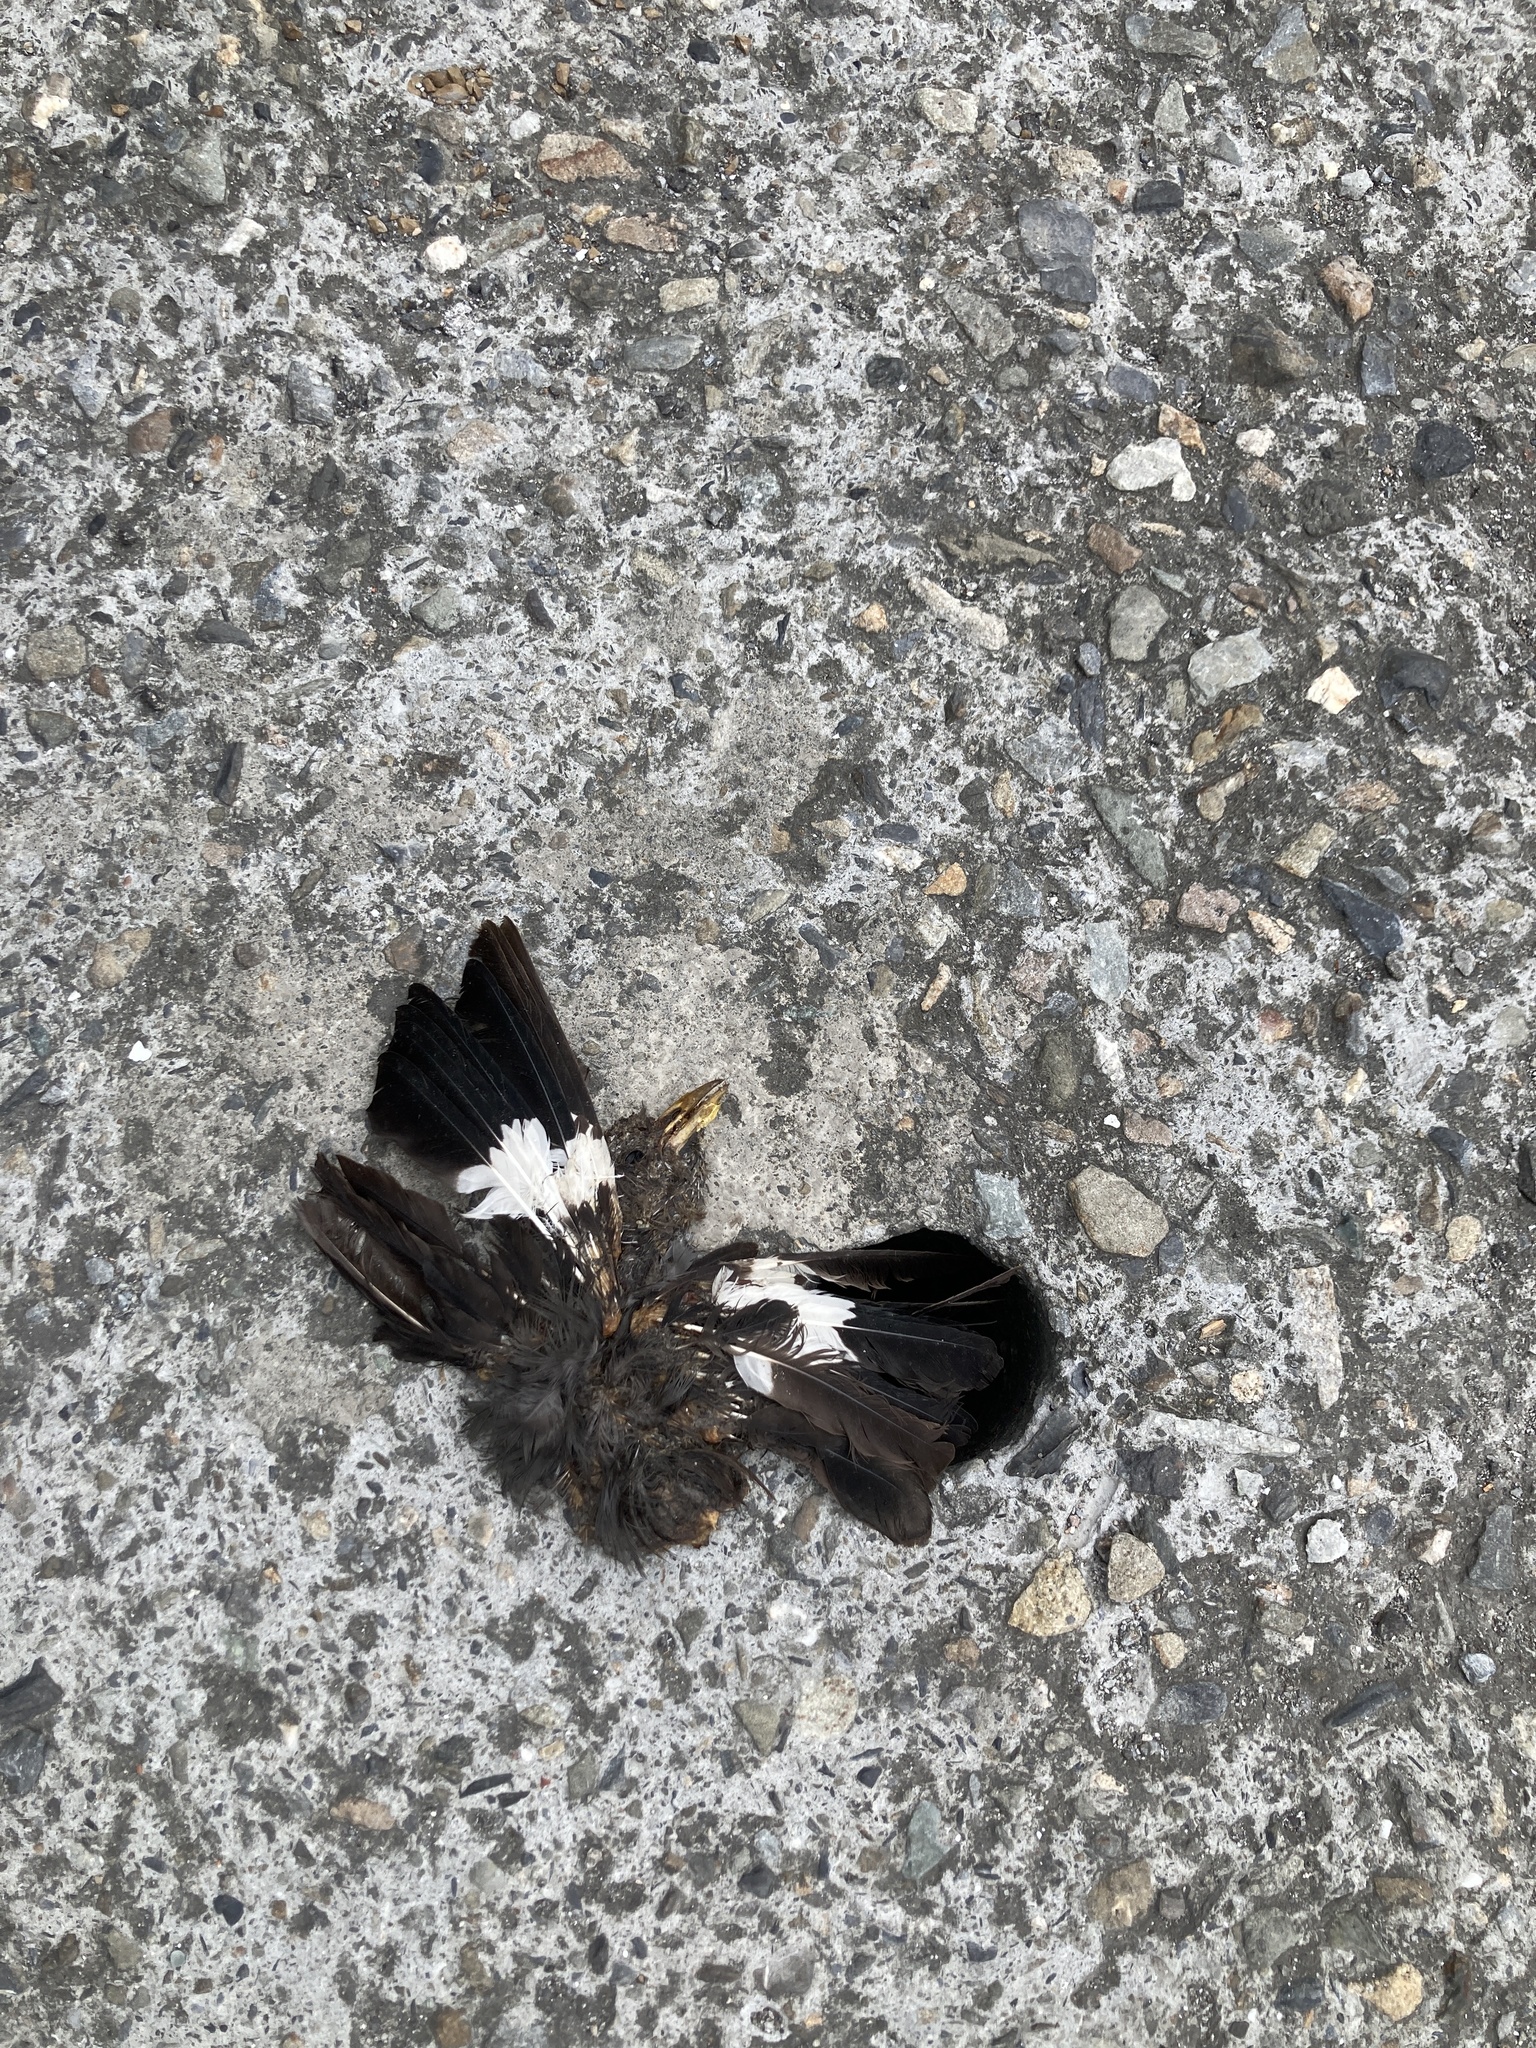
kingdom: Animalia
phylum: Chordata
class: Aves
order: Passeriformes
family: Sturnidae
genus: Acridotheres
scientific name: Acridotheres javanicus
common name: Javan myna
